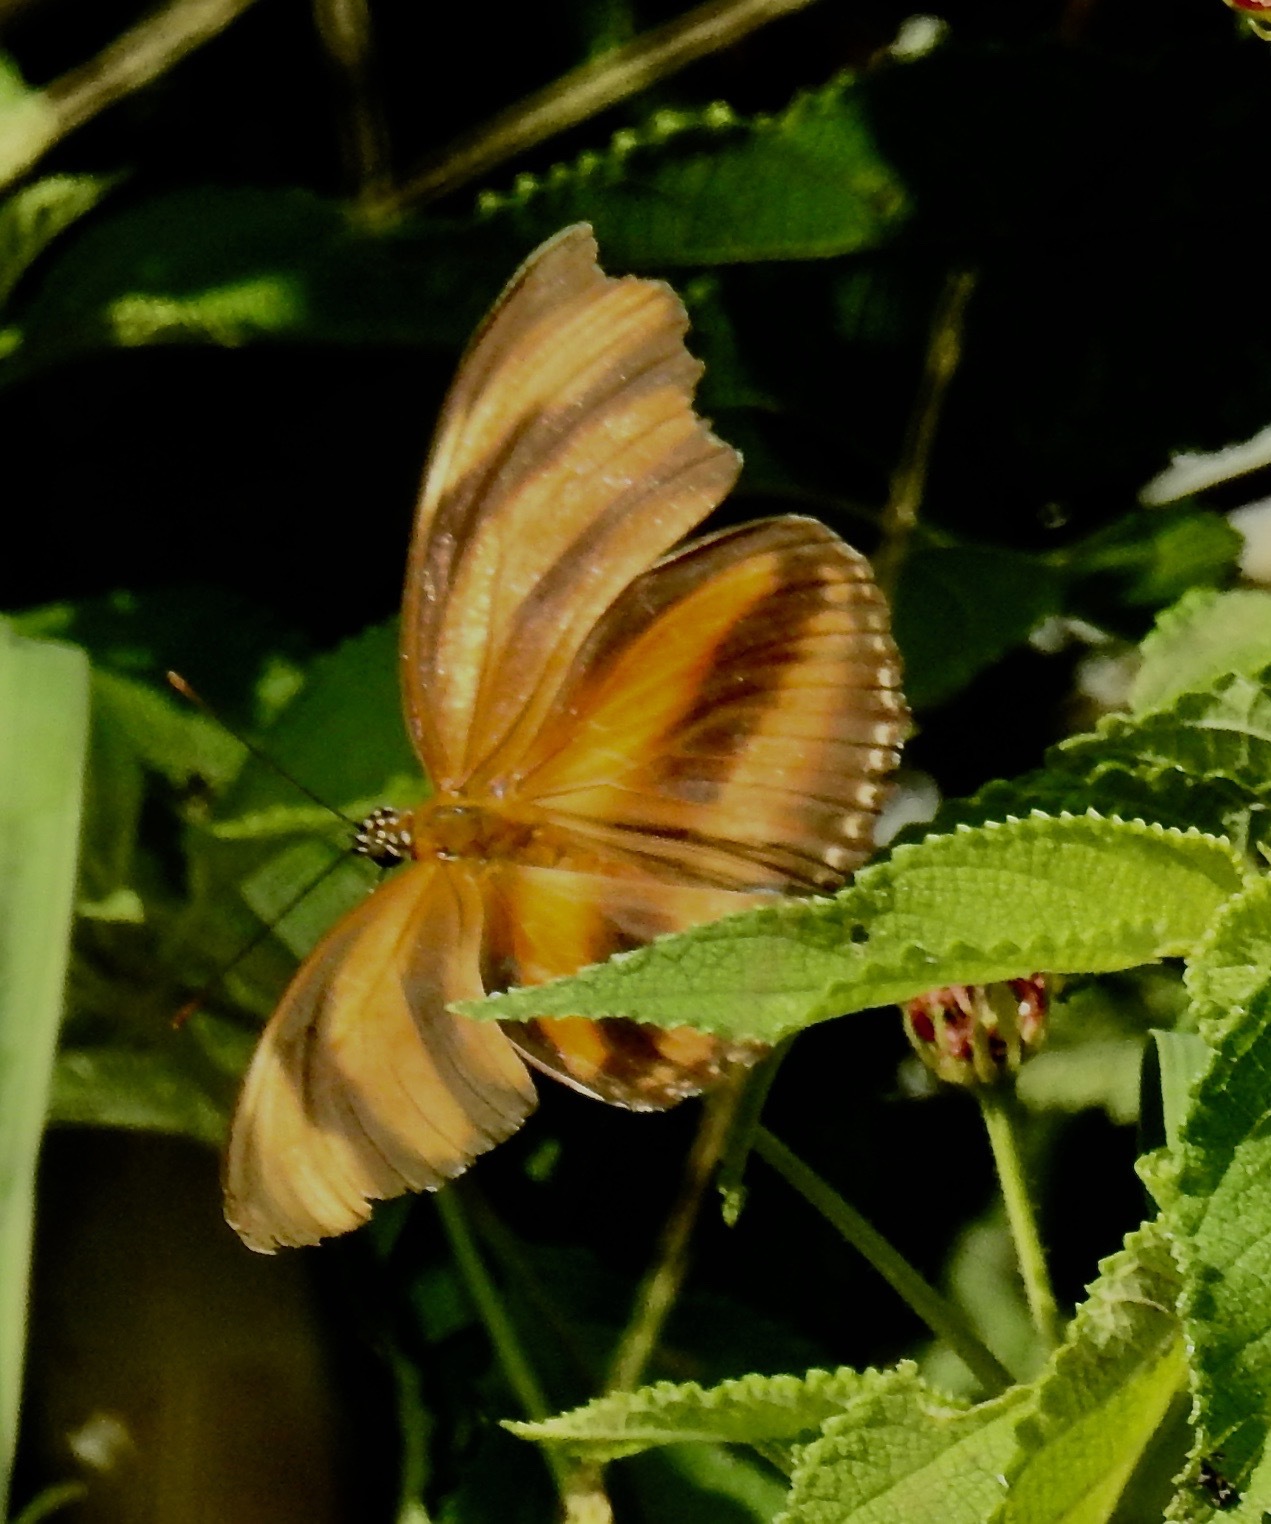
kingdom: Animalia
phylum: Arthropoda
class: Insecta
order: Lepidoptera
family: Nymphalidae
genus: Dryadula
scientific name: Dryadula phaetusa
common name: Banded orange heliconian
